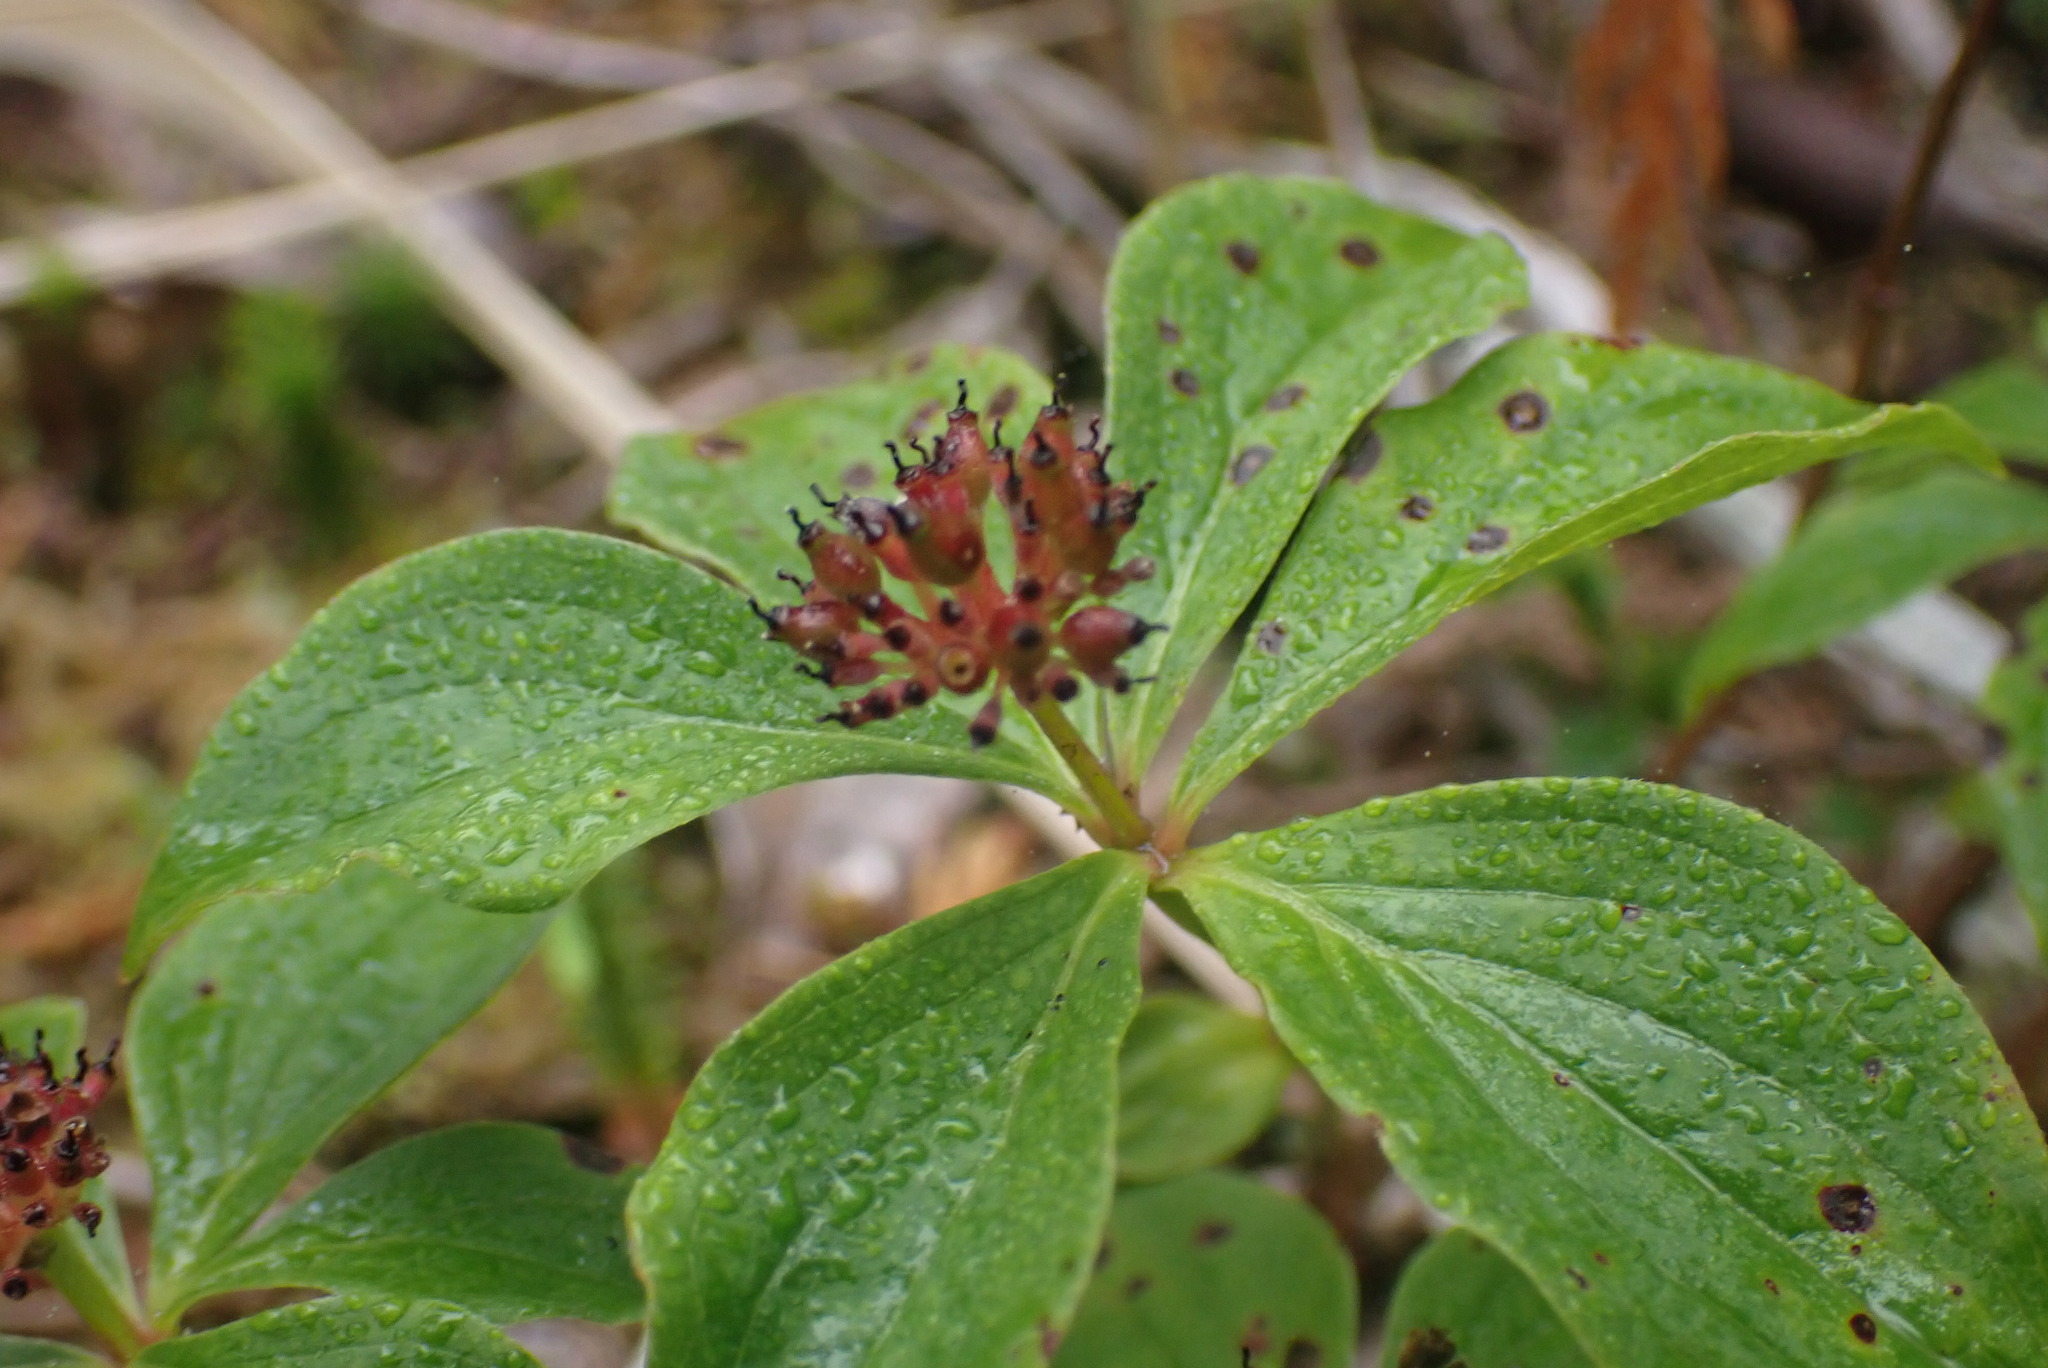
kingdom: Plantae
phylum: Tracheophyta
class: Magnoliopsida
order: Cornales
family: Cornaceae
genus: Cornus
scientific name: Cornus unalaschkensis
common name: Alaska bunchberry
